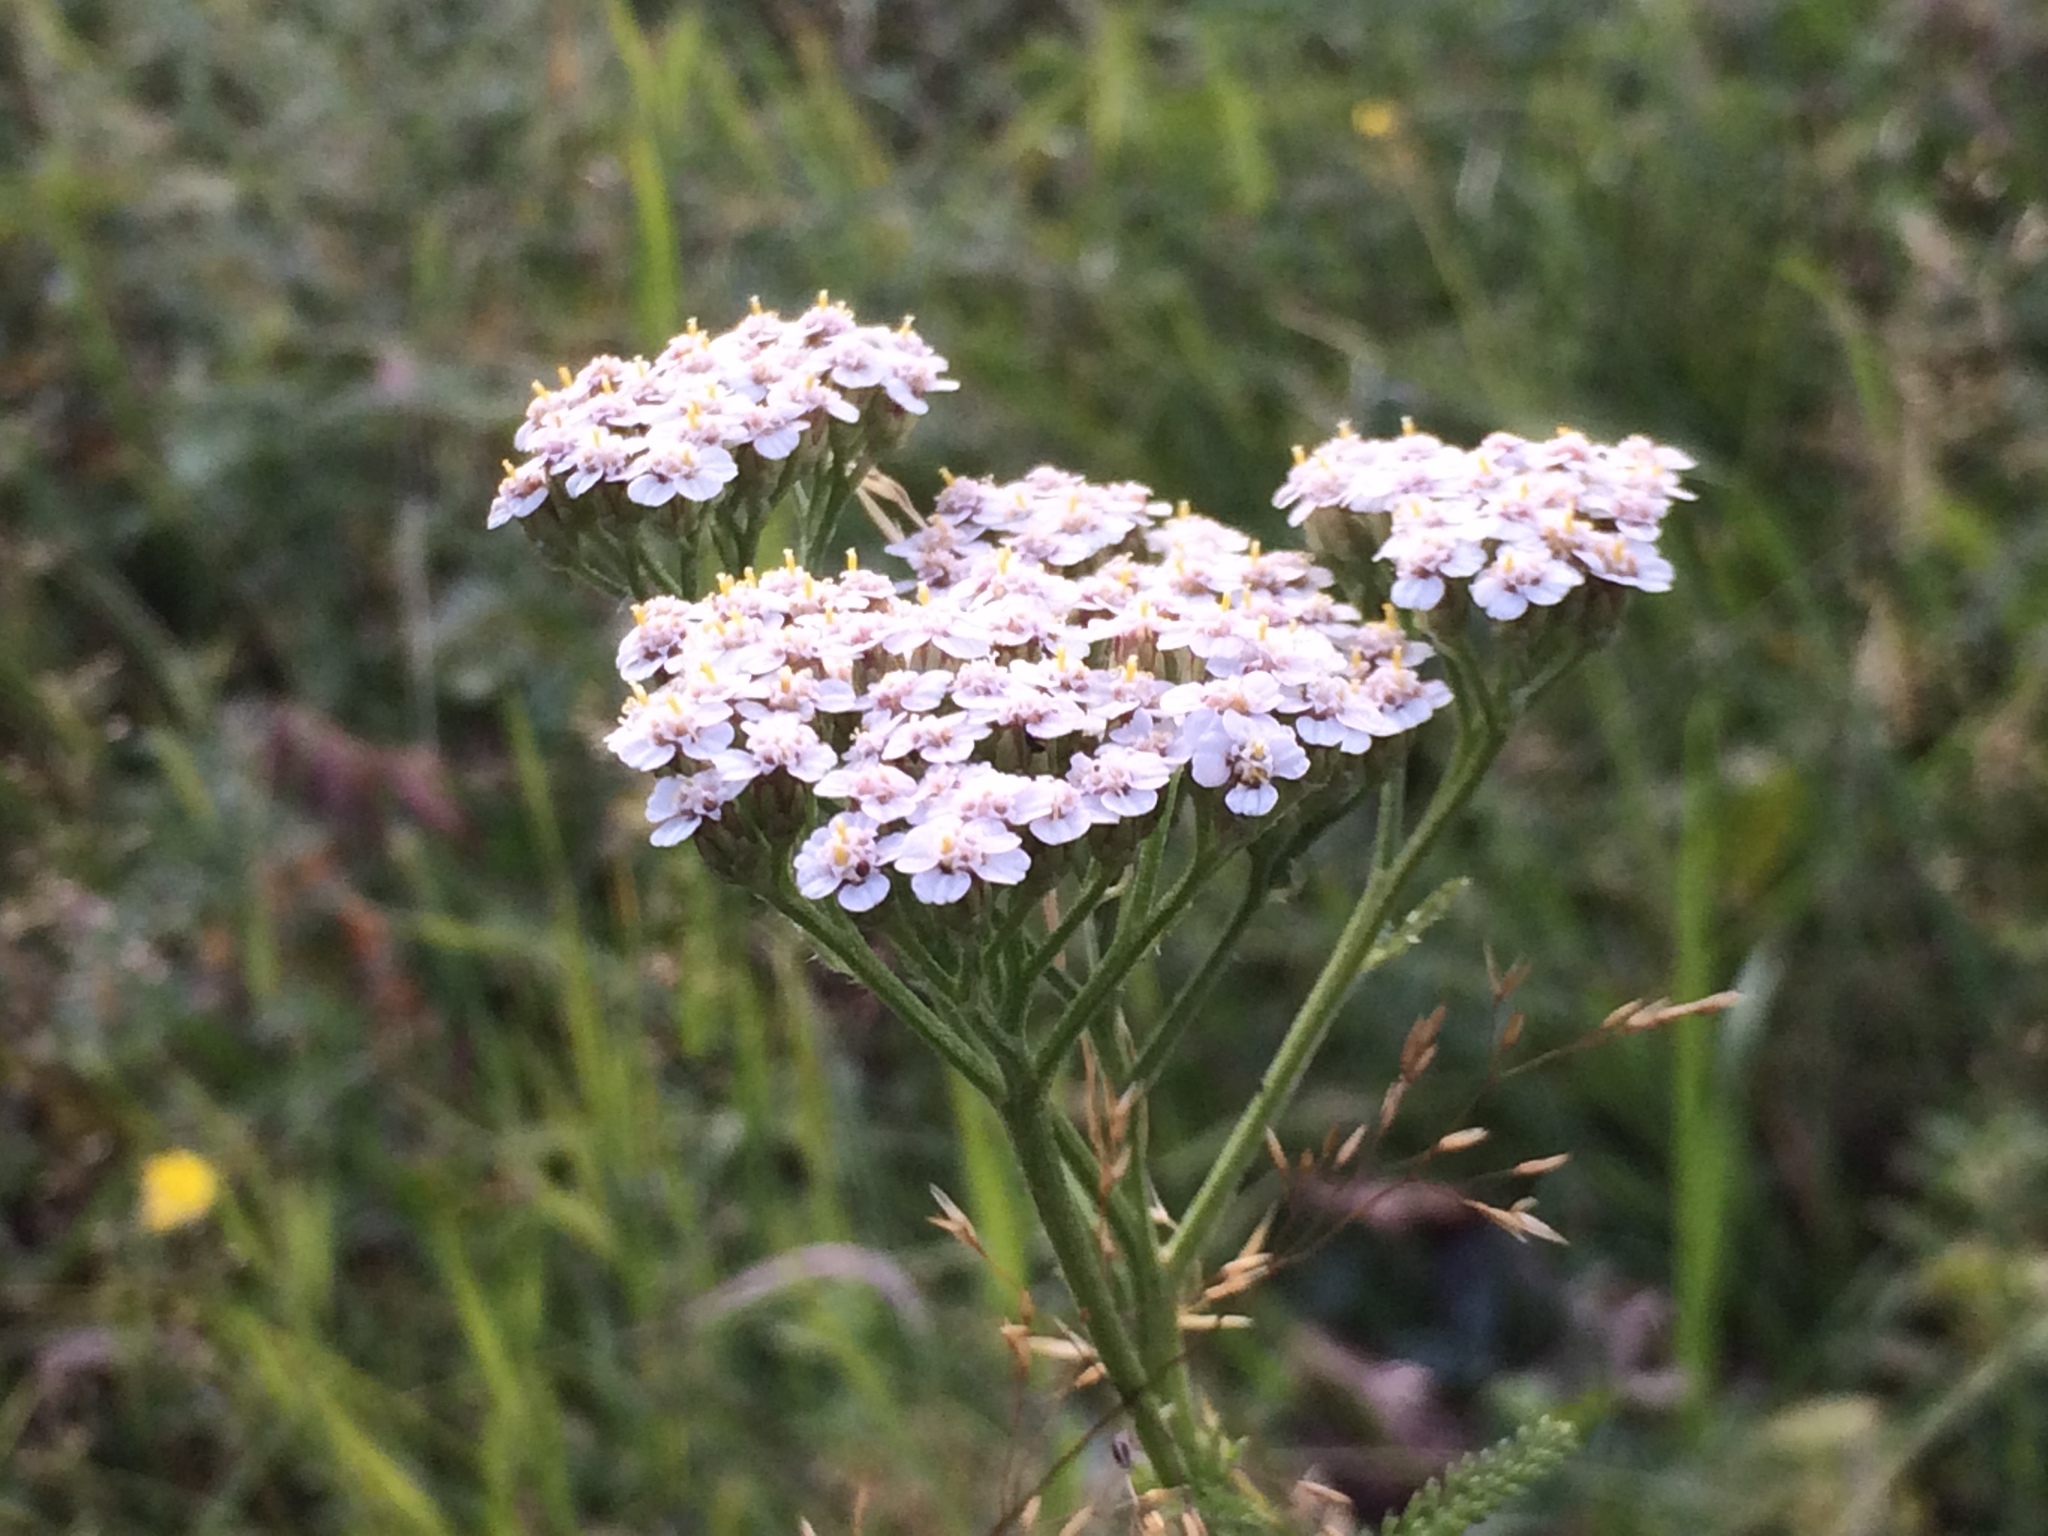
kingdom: Plantae
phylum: Tracheophyta
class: Magnoliopsida
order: Asterales
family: Asteraceae
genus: Achillea
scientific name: Achillea millefolium
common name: Yarrow
